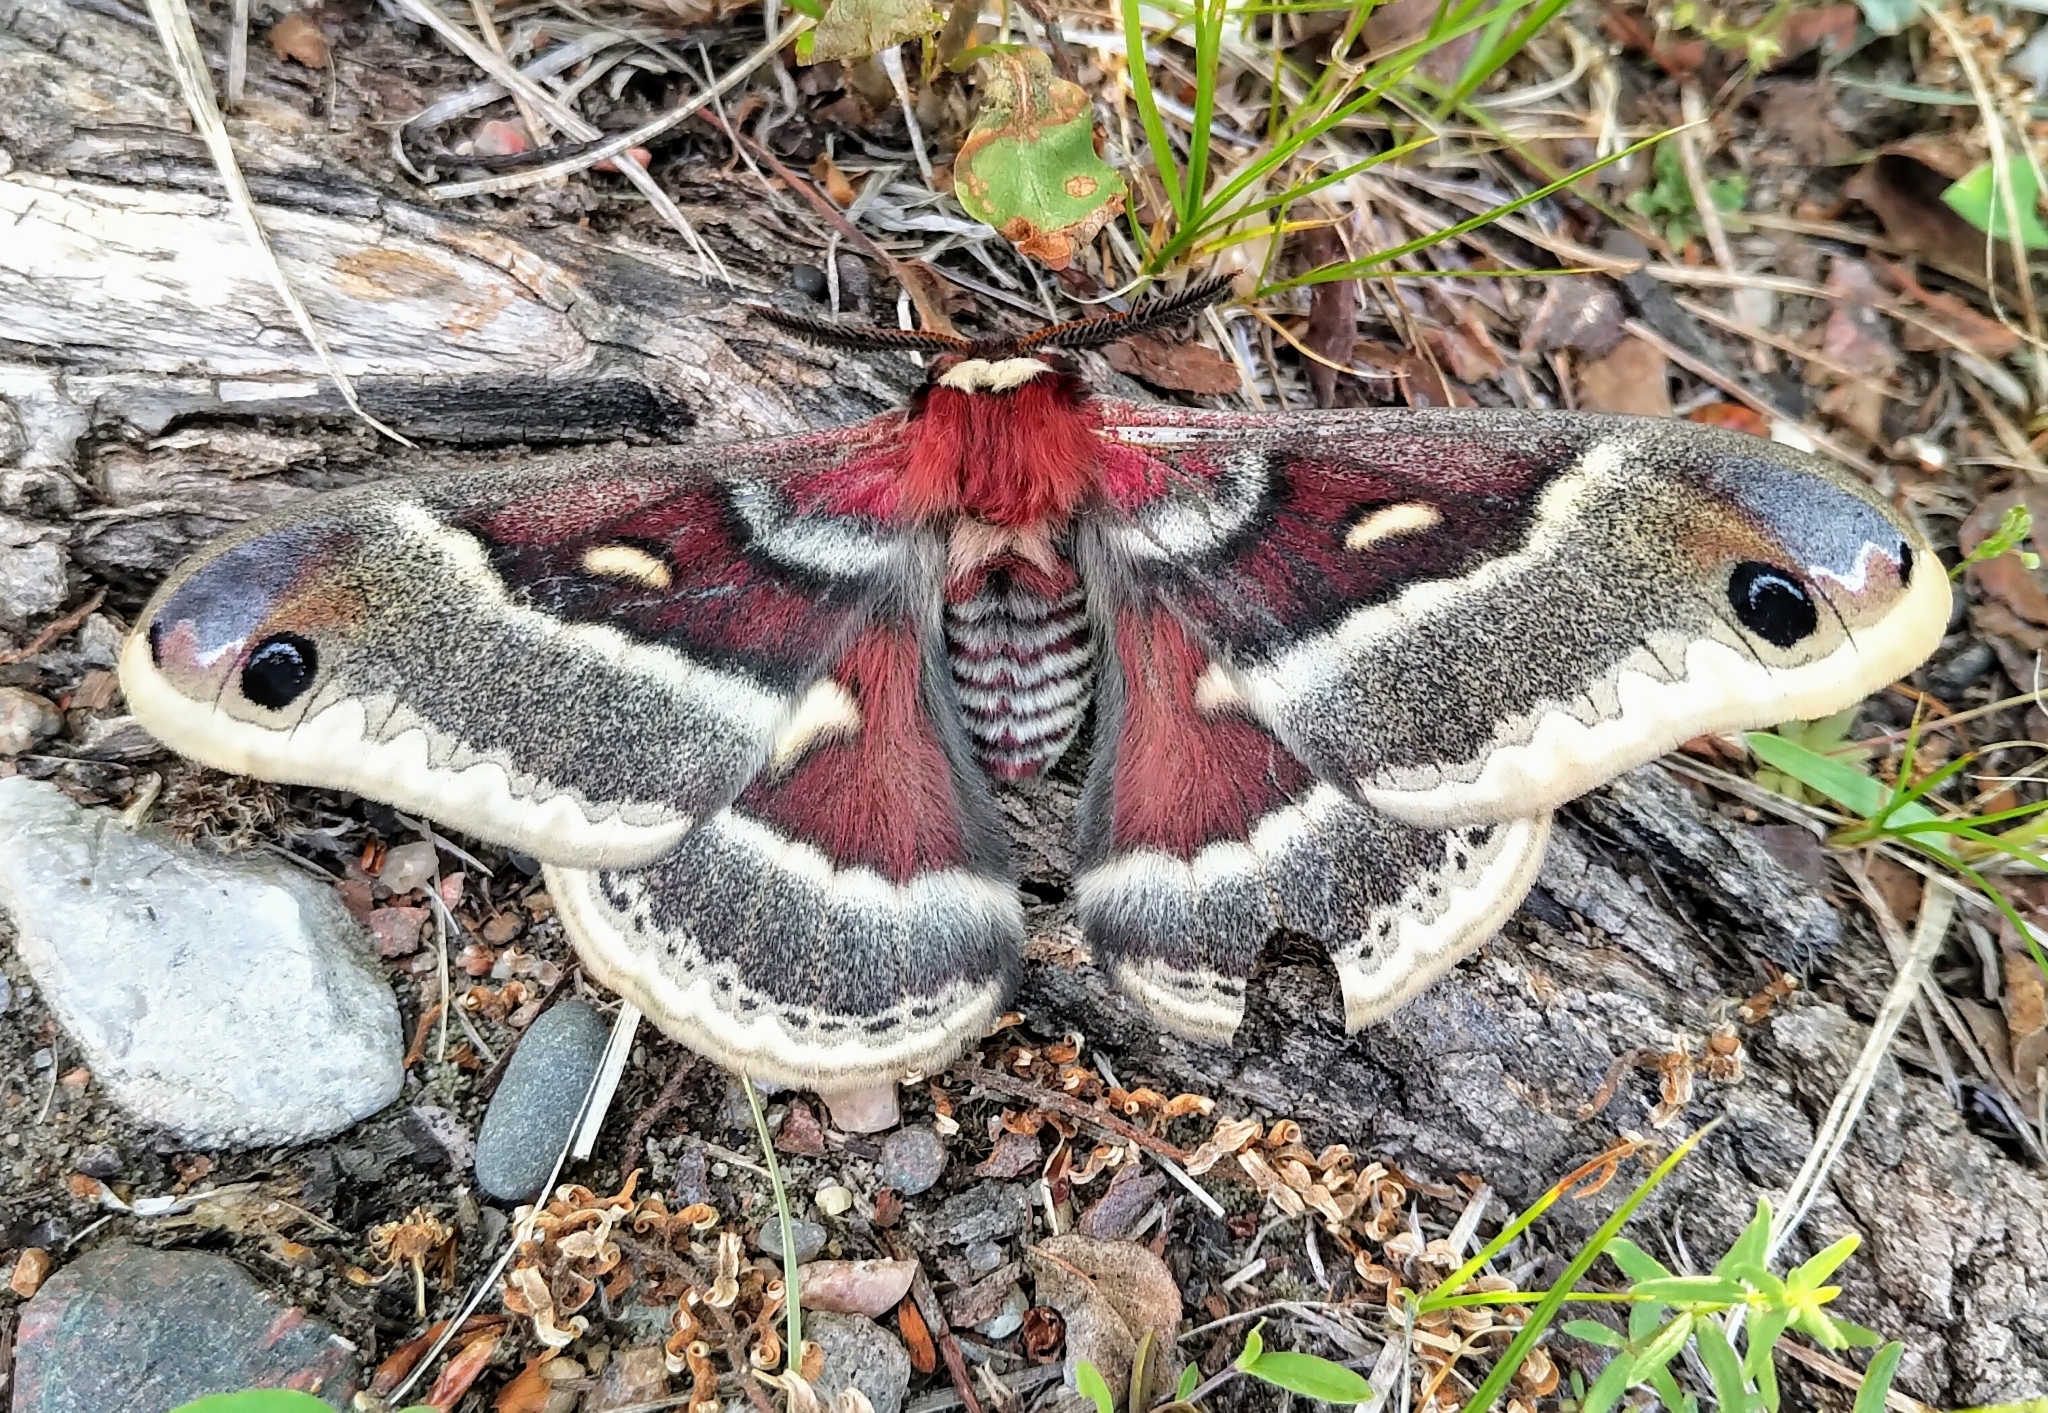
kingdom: Animalia
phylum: Arthropoda
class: Insecta
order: Lepidoptera
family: Saturniidae
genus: Hyalophora
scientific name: Hyalophora gloveri
